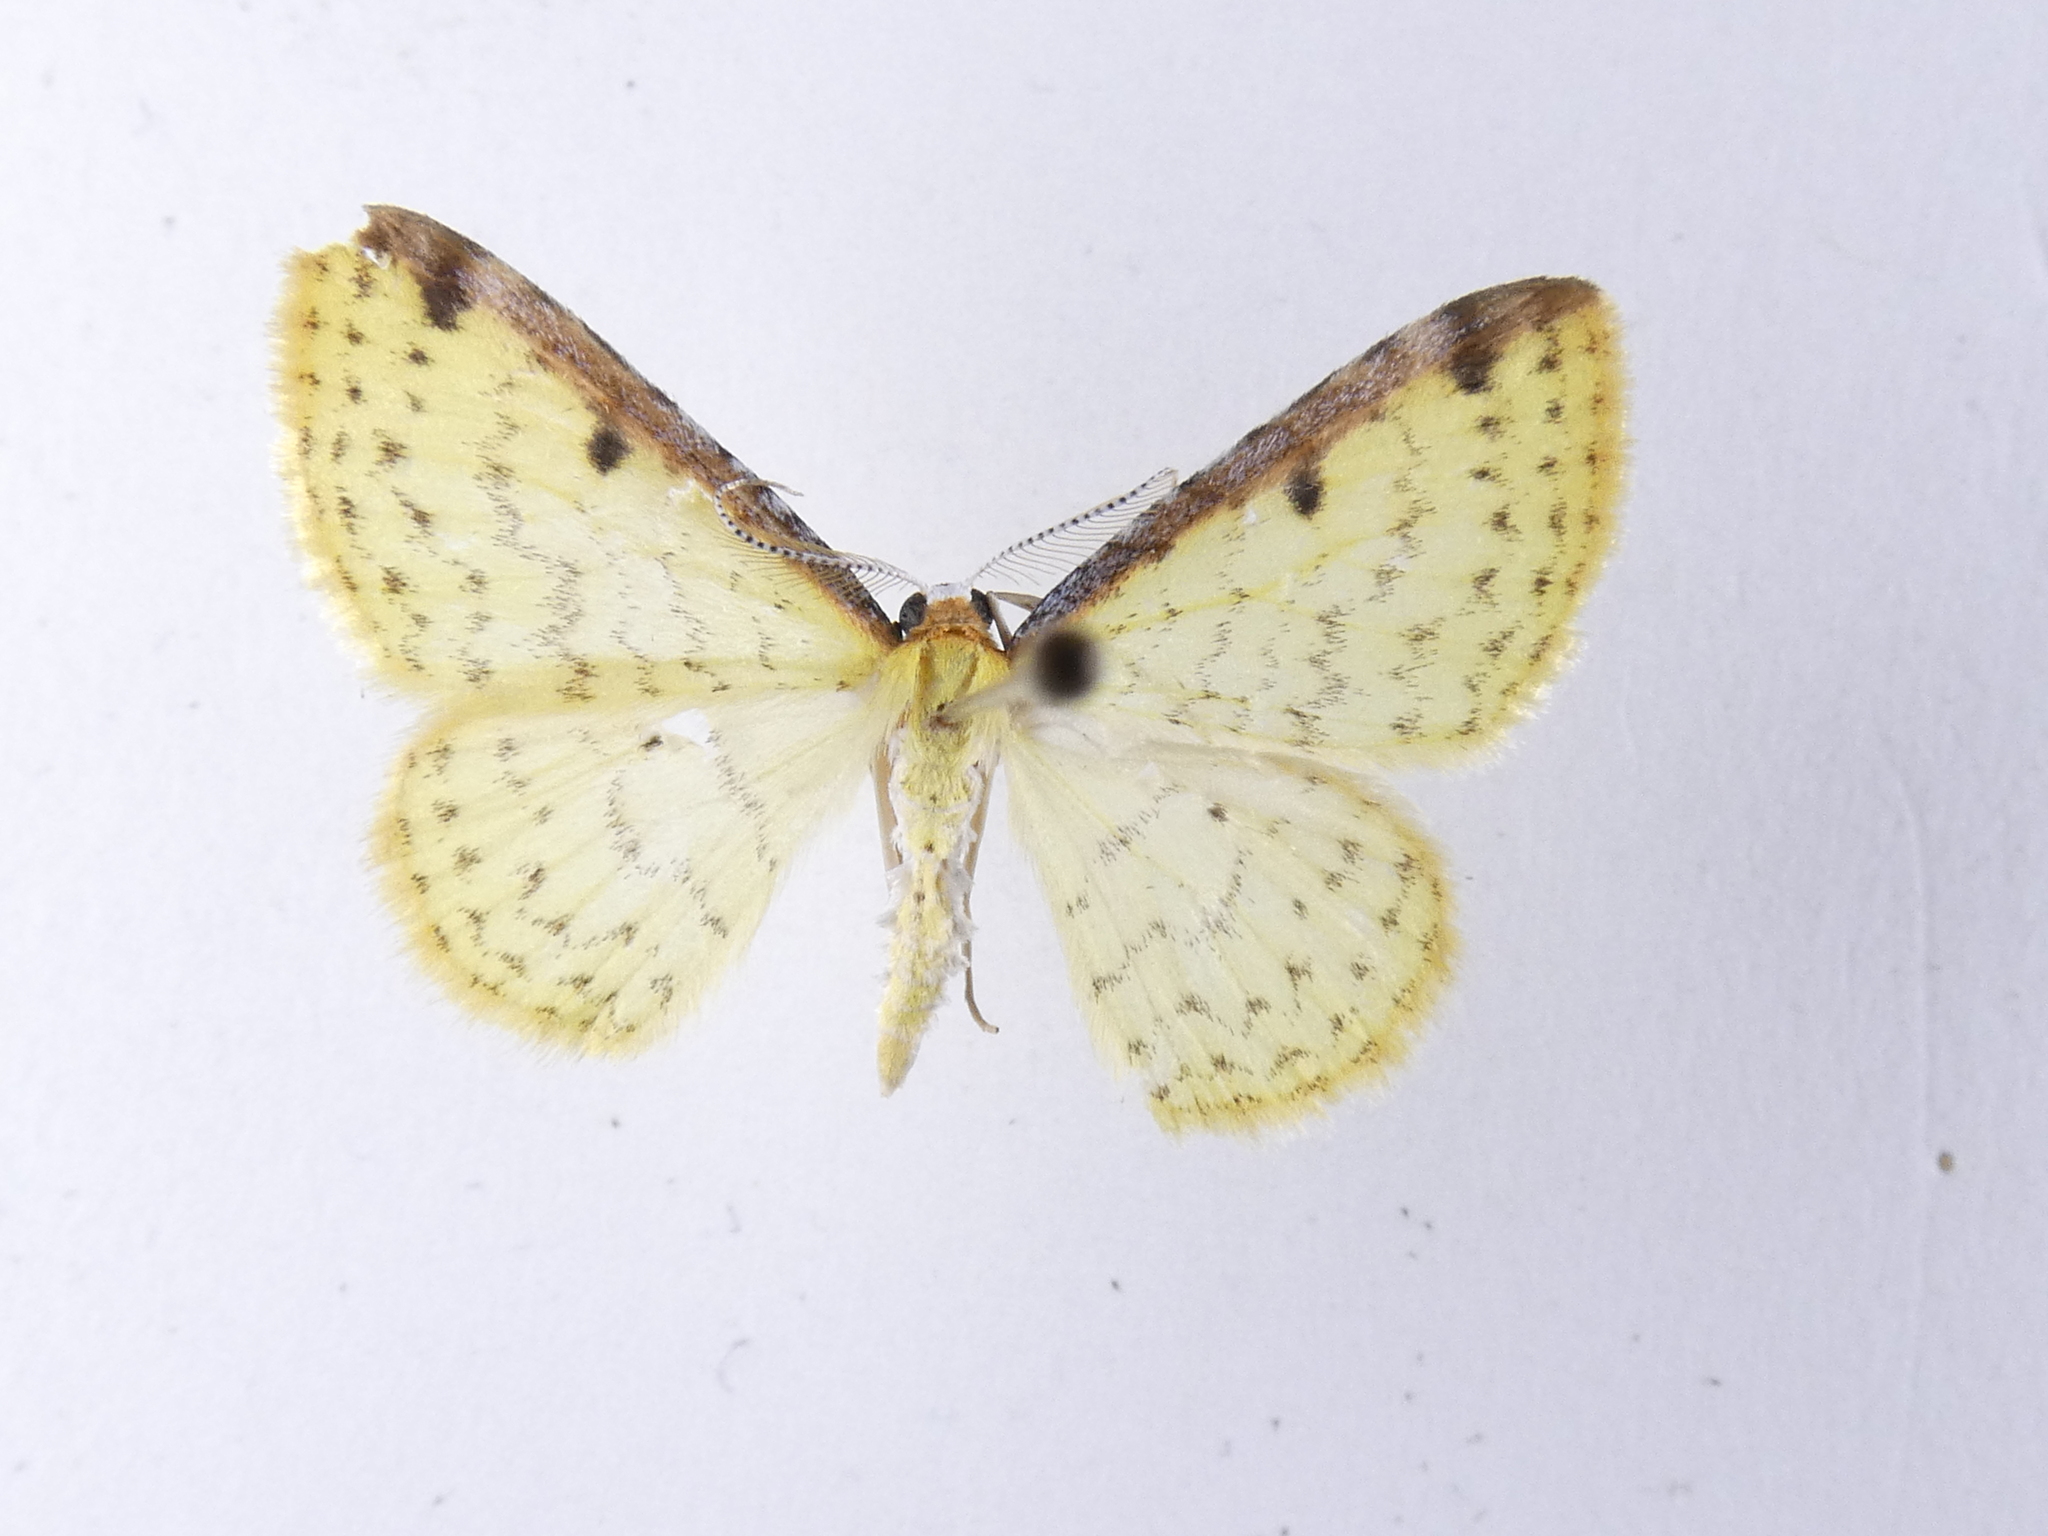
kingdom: Animalia
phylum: Arthropoda
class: Insecta
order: Lepidoptera
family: Geometridae
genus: Epiphryne
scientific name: Epiphryne undosata
